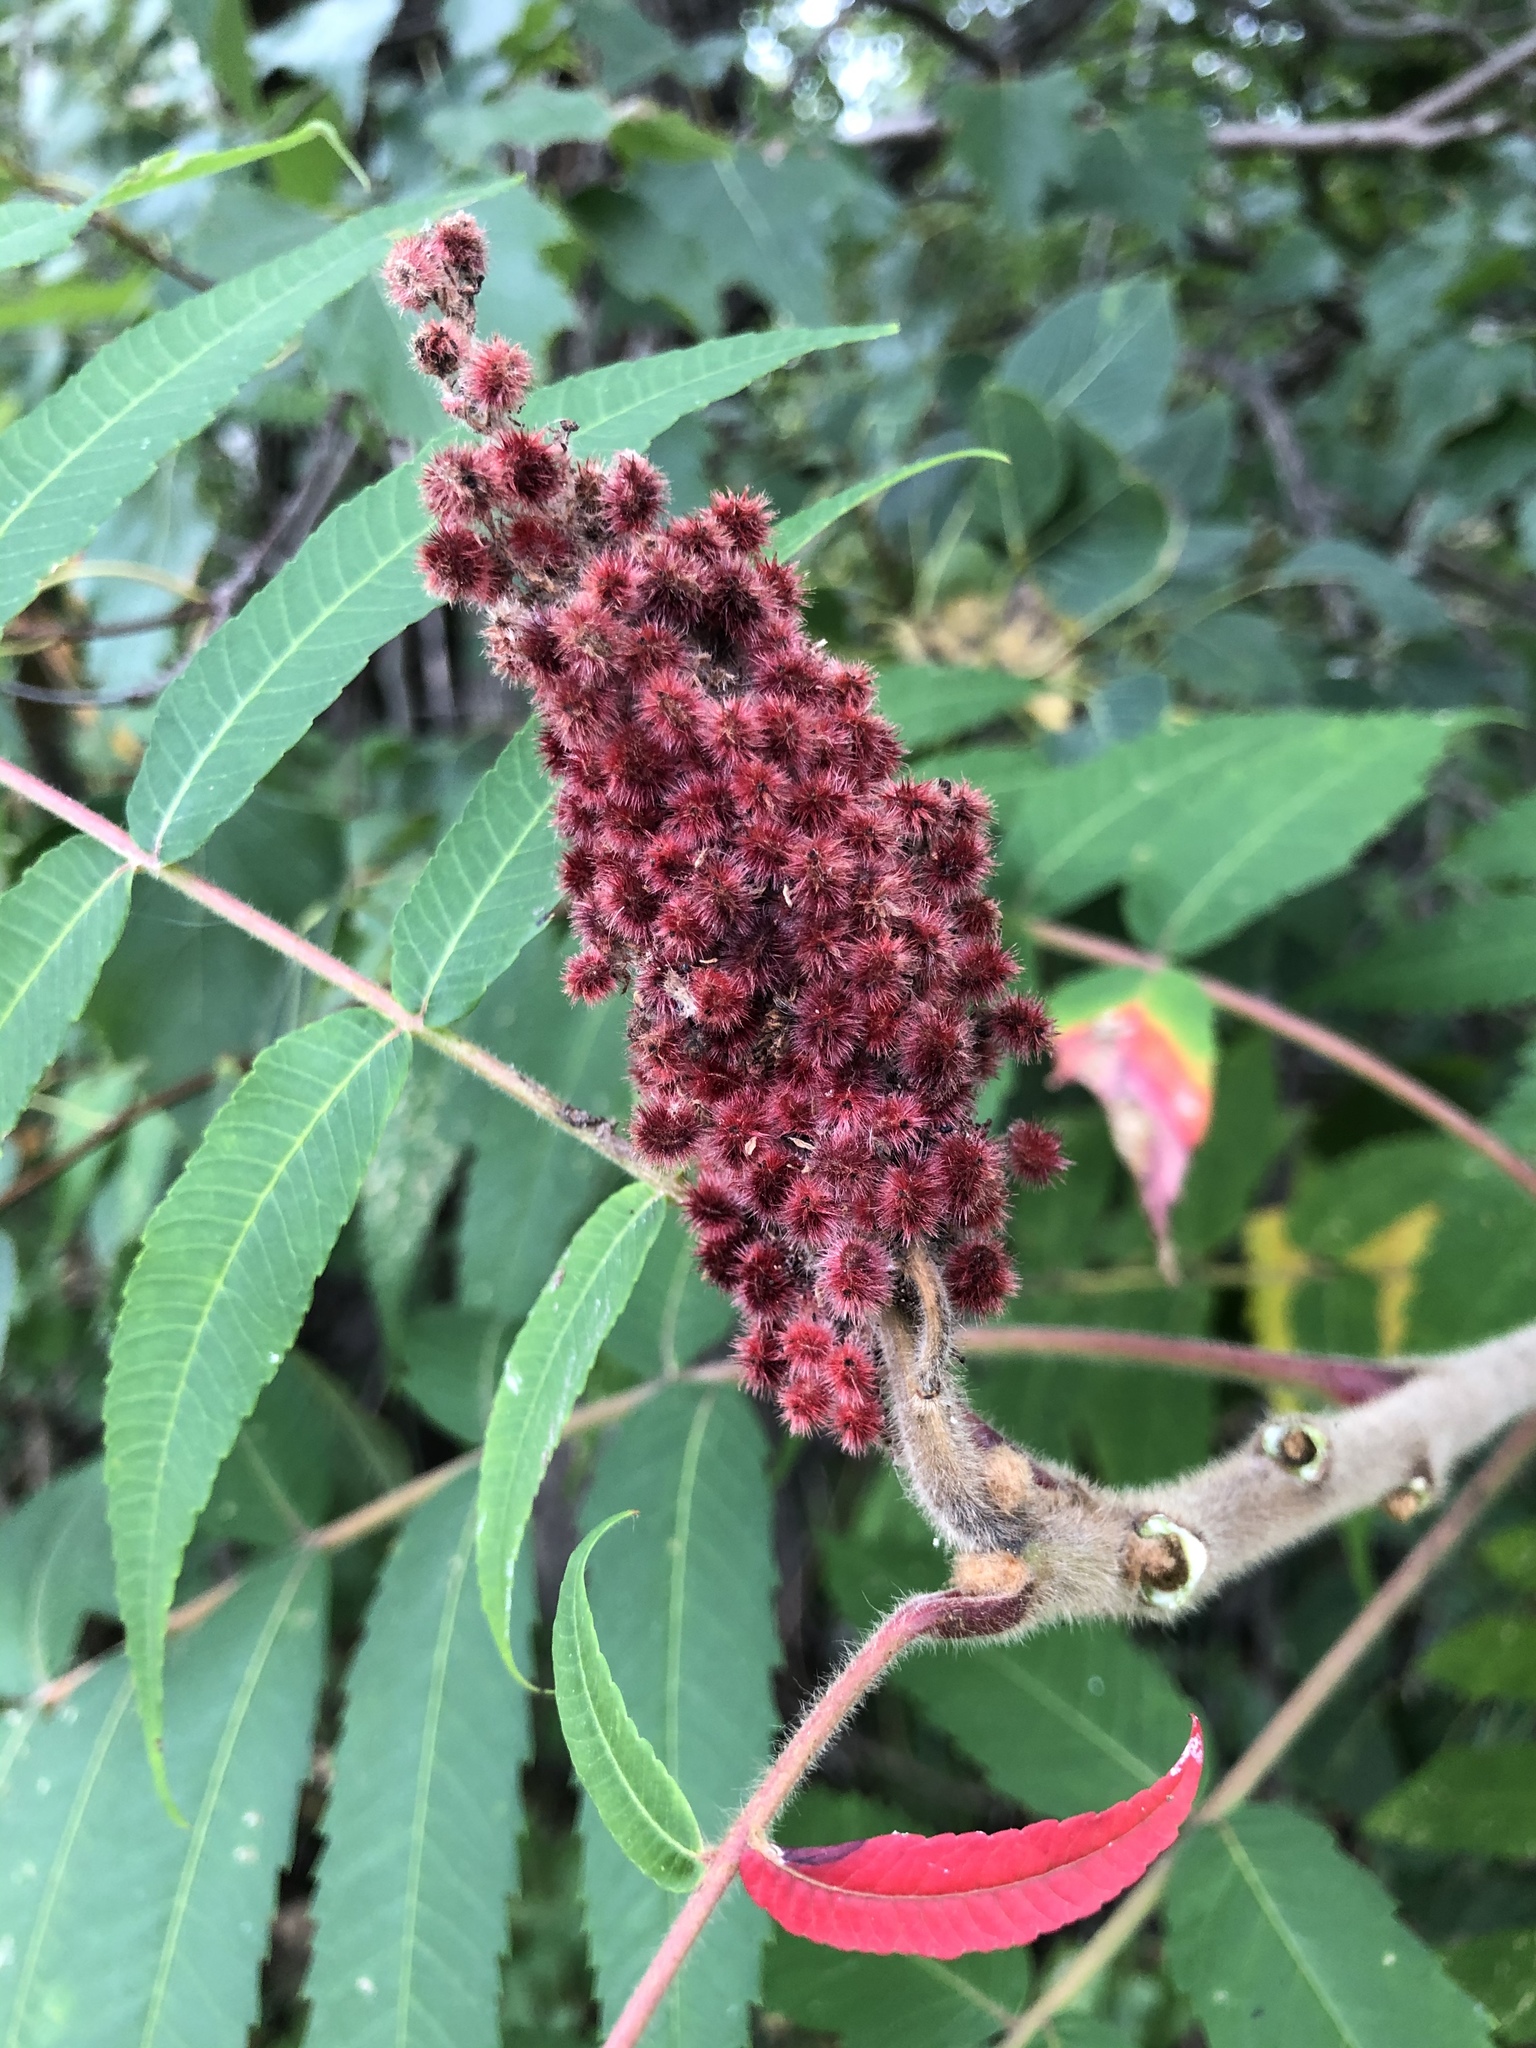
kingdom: Plantae
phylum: Tracheophyta
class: Magnoliopsida
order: Sapindales
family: Anacardiaceae
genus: Rhus
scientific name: Rhus typhina
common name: Staghorn sumac
